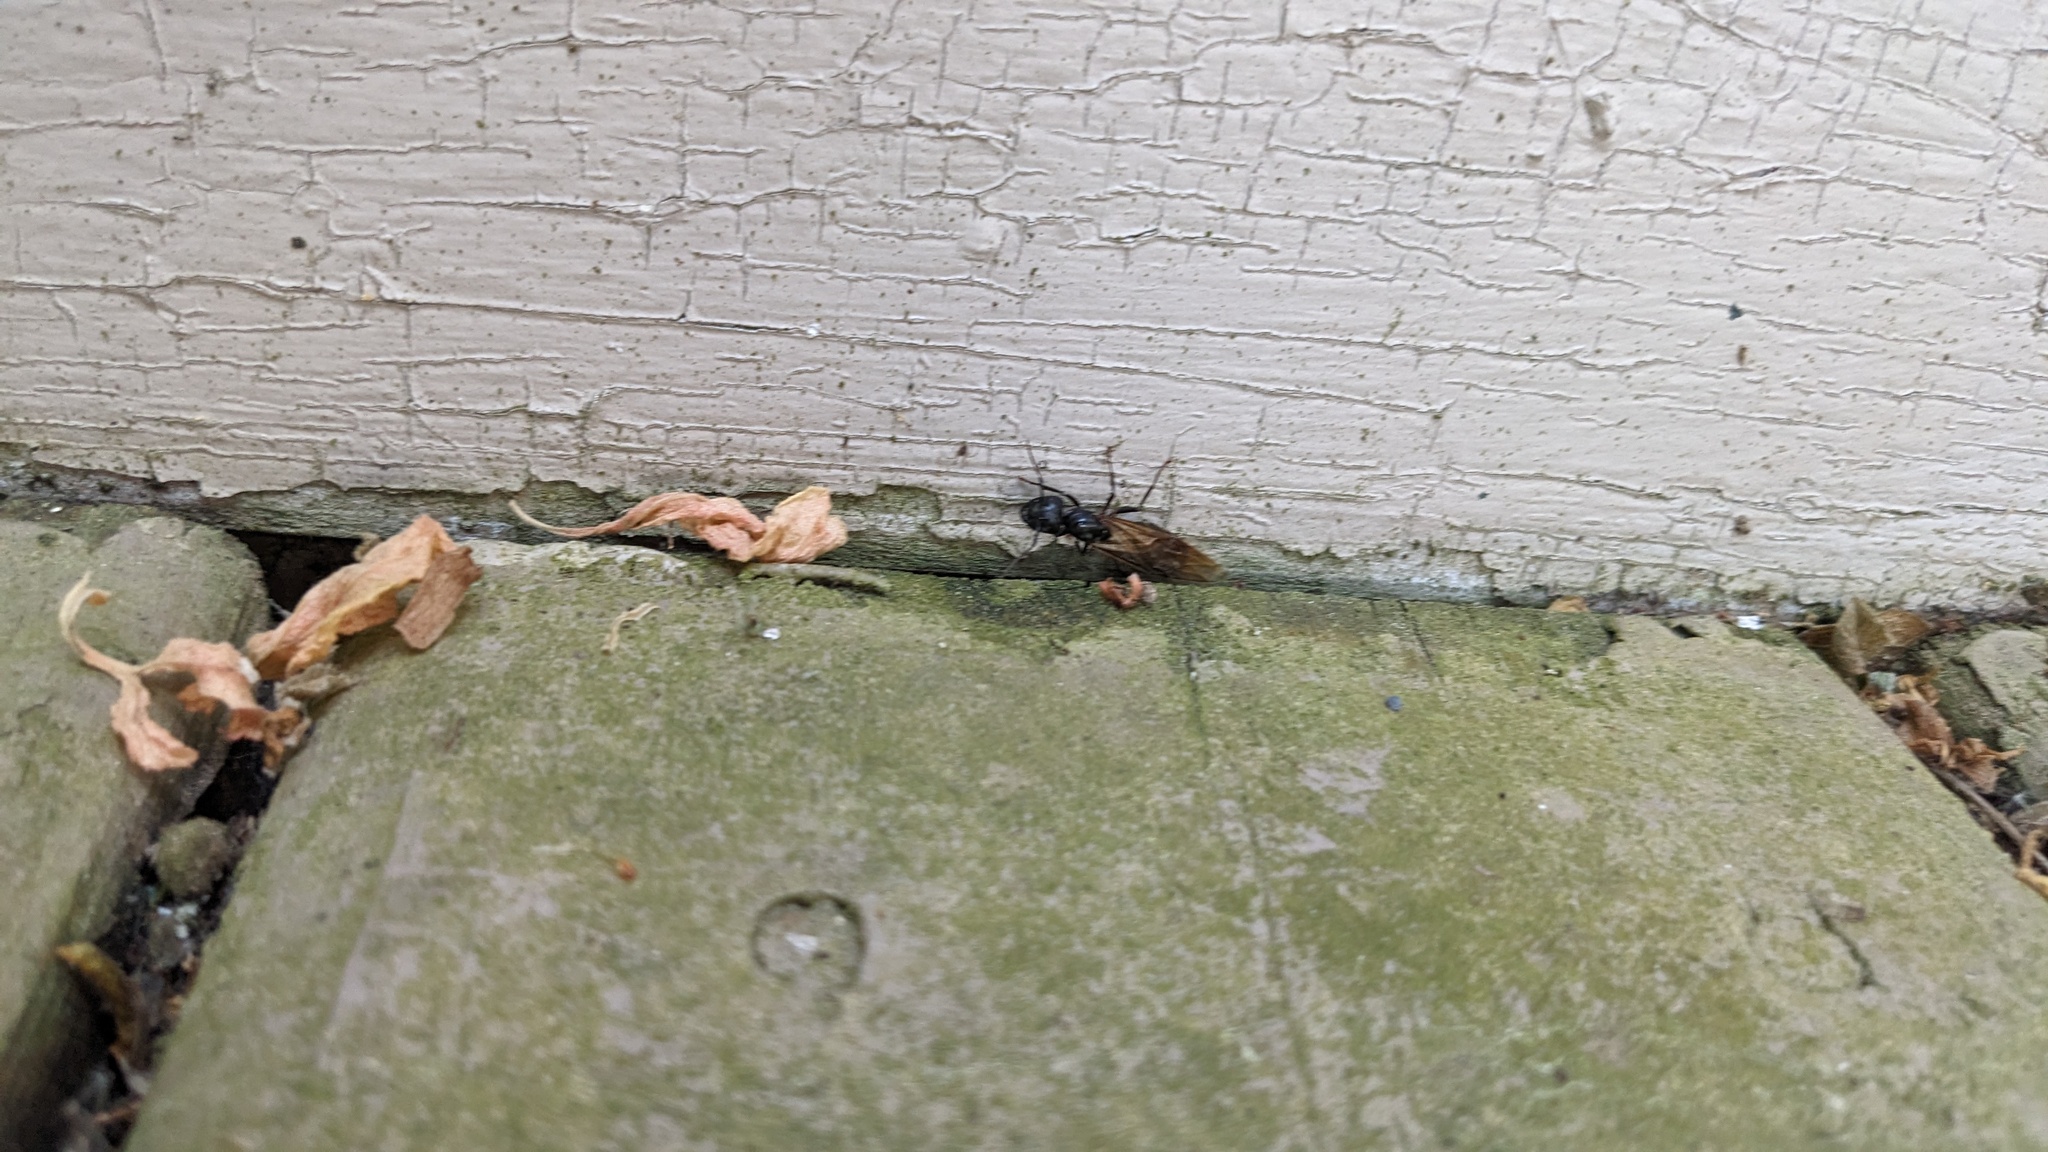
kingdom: Animalia
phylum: Arthropoda
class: Insecta
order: Hymenoptera
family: Formicidae
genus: Camponotus
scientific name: Camponotus pennsylvanicus
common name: Black carpenter ant
